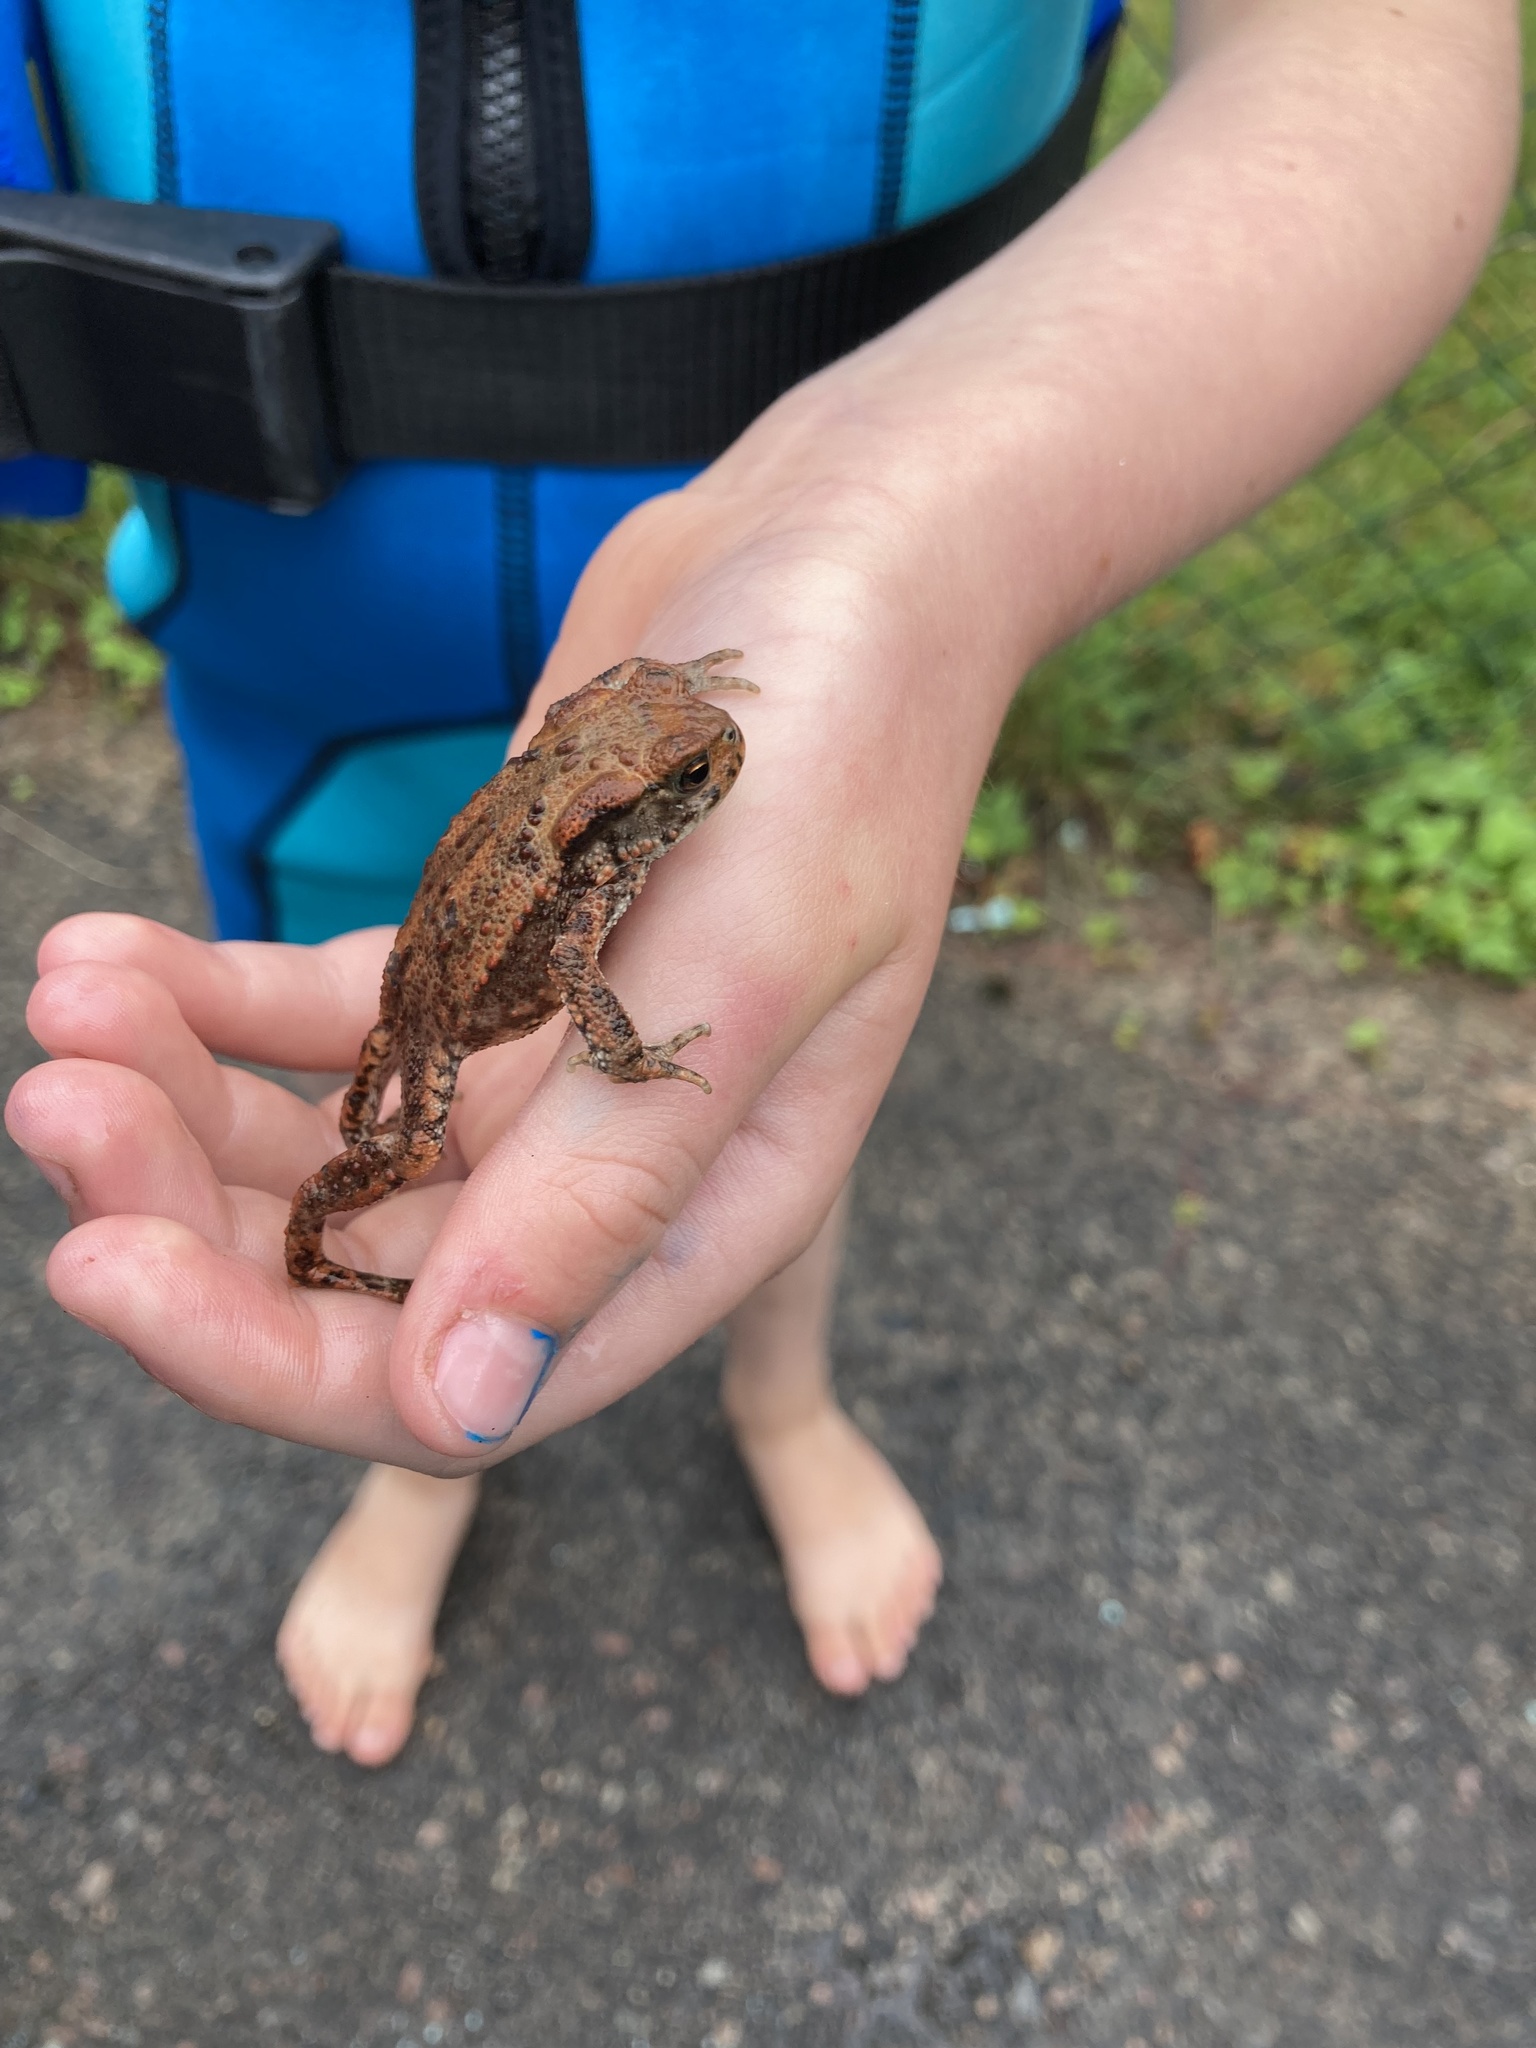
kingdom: Animalia
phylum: Chordata
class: Amphibia
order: Anura
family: Bufonidae
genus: Bufo
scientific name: Bufo bufo
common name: Common toad
